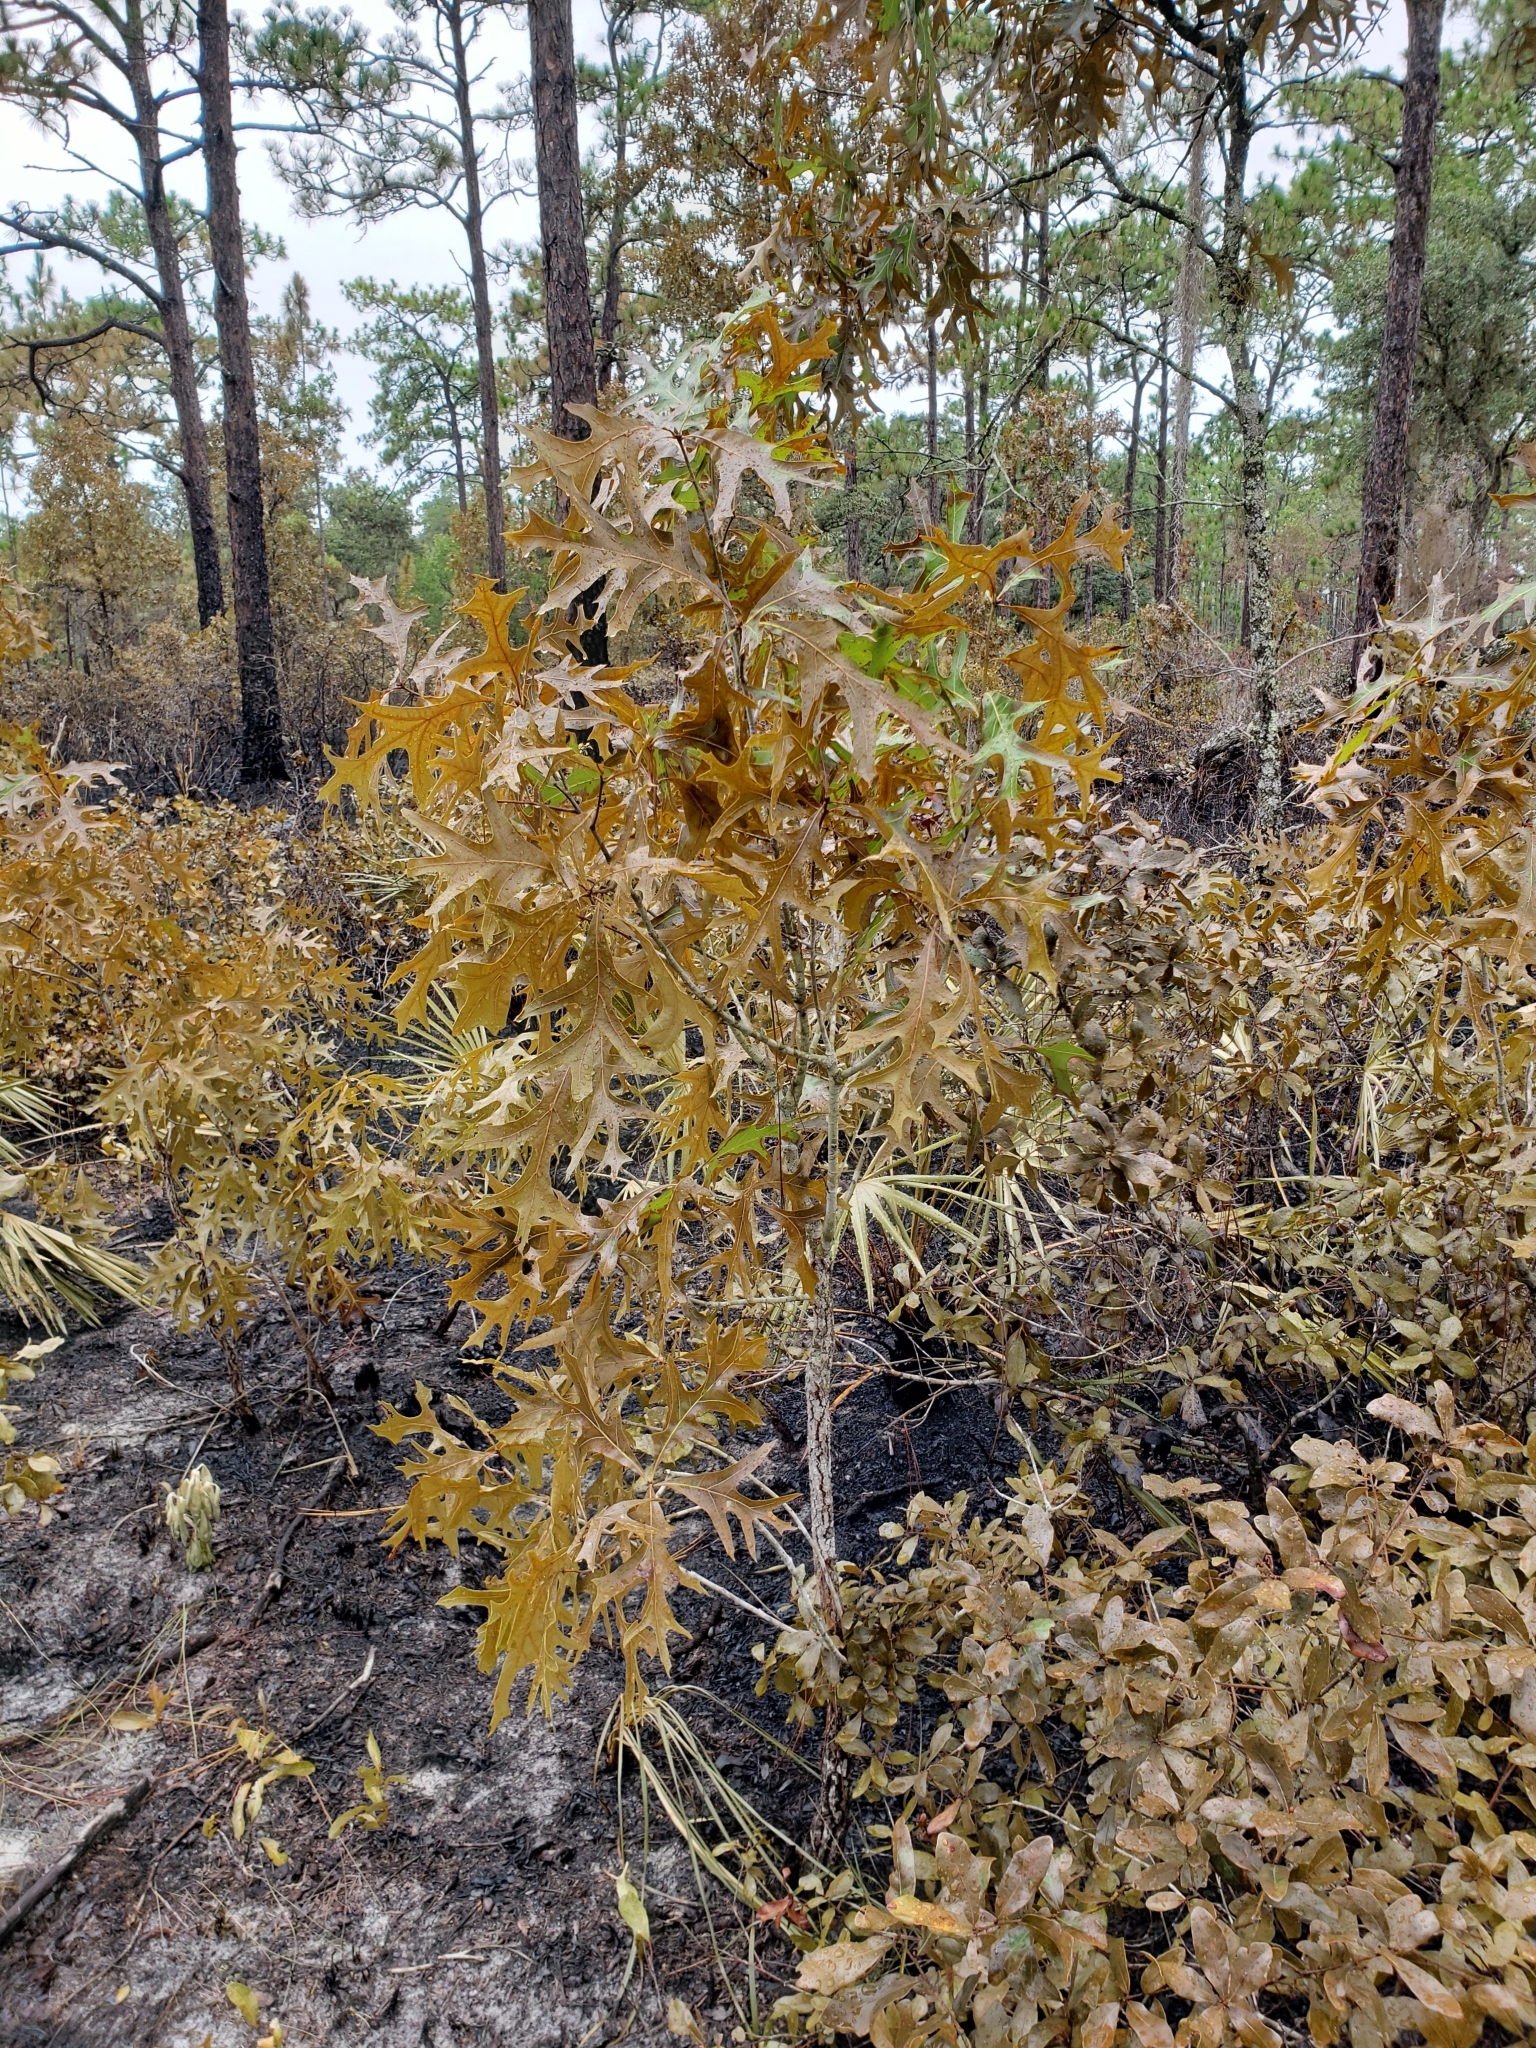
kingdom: Plantae
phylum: Tracheophyta
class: Magnoliopsida
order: Fagales
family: Fagaceae
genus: Quercus
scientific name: Quercus laevis
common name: Turkey oak
